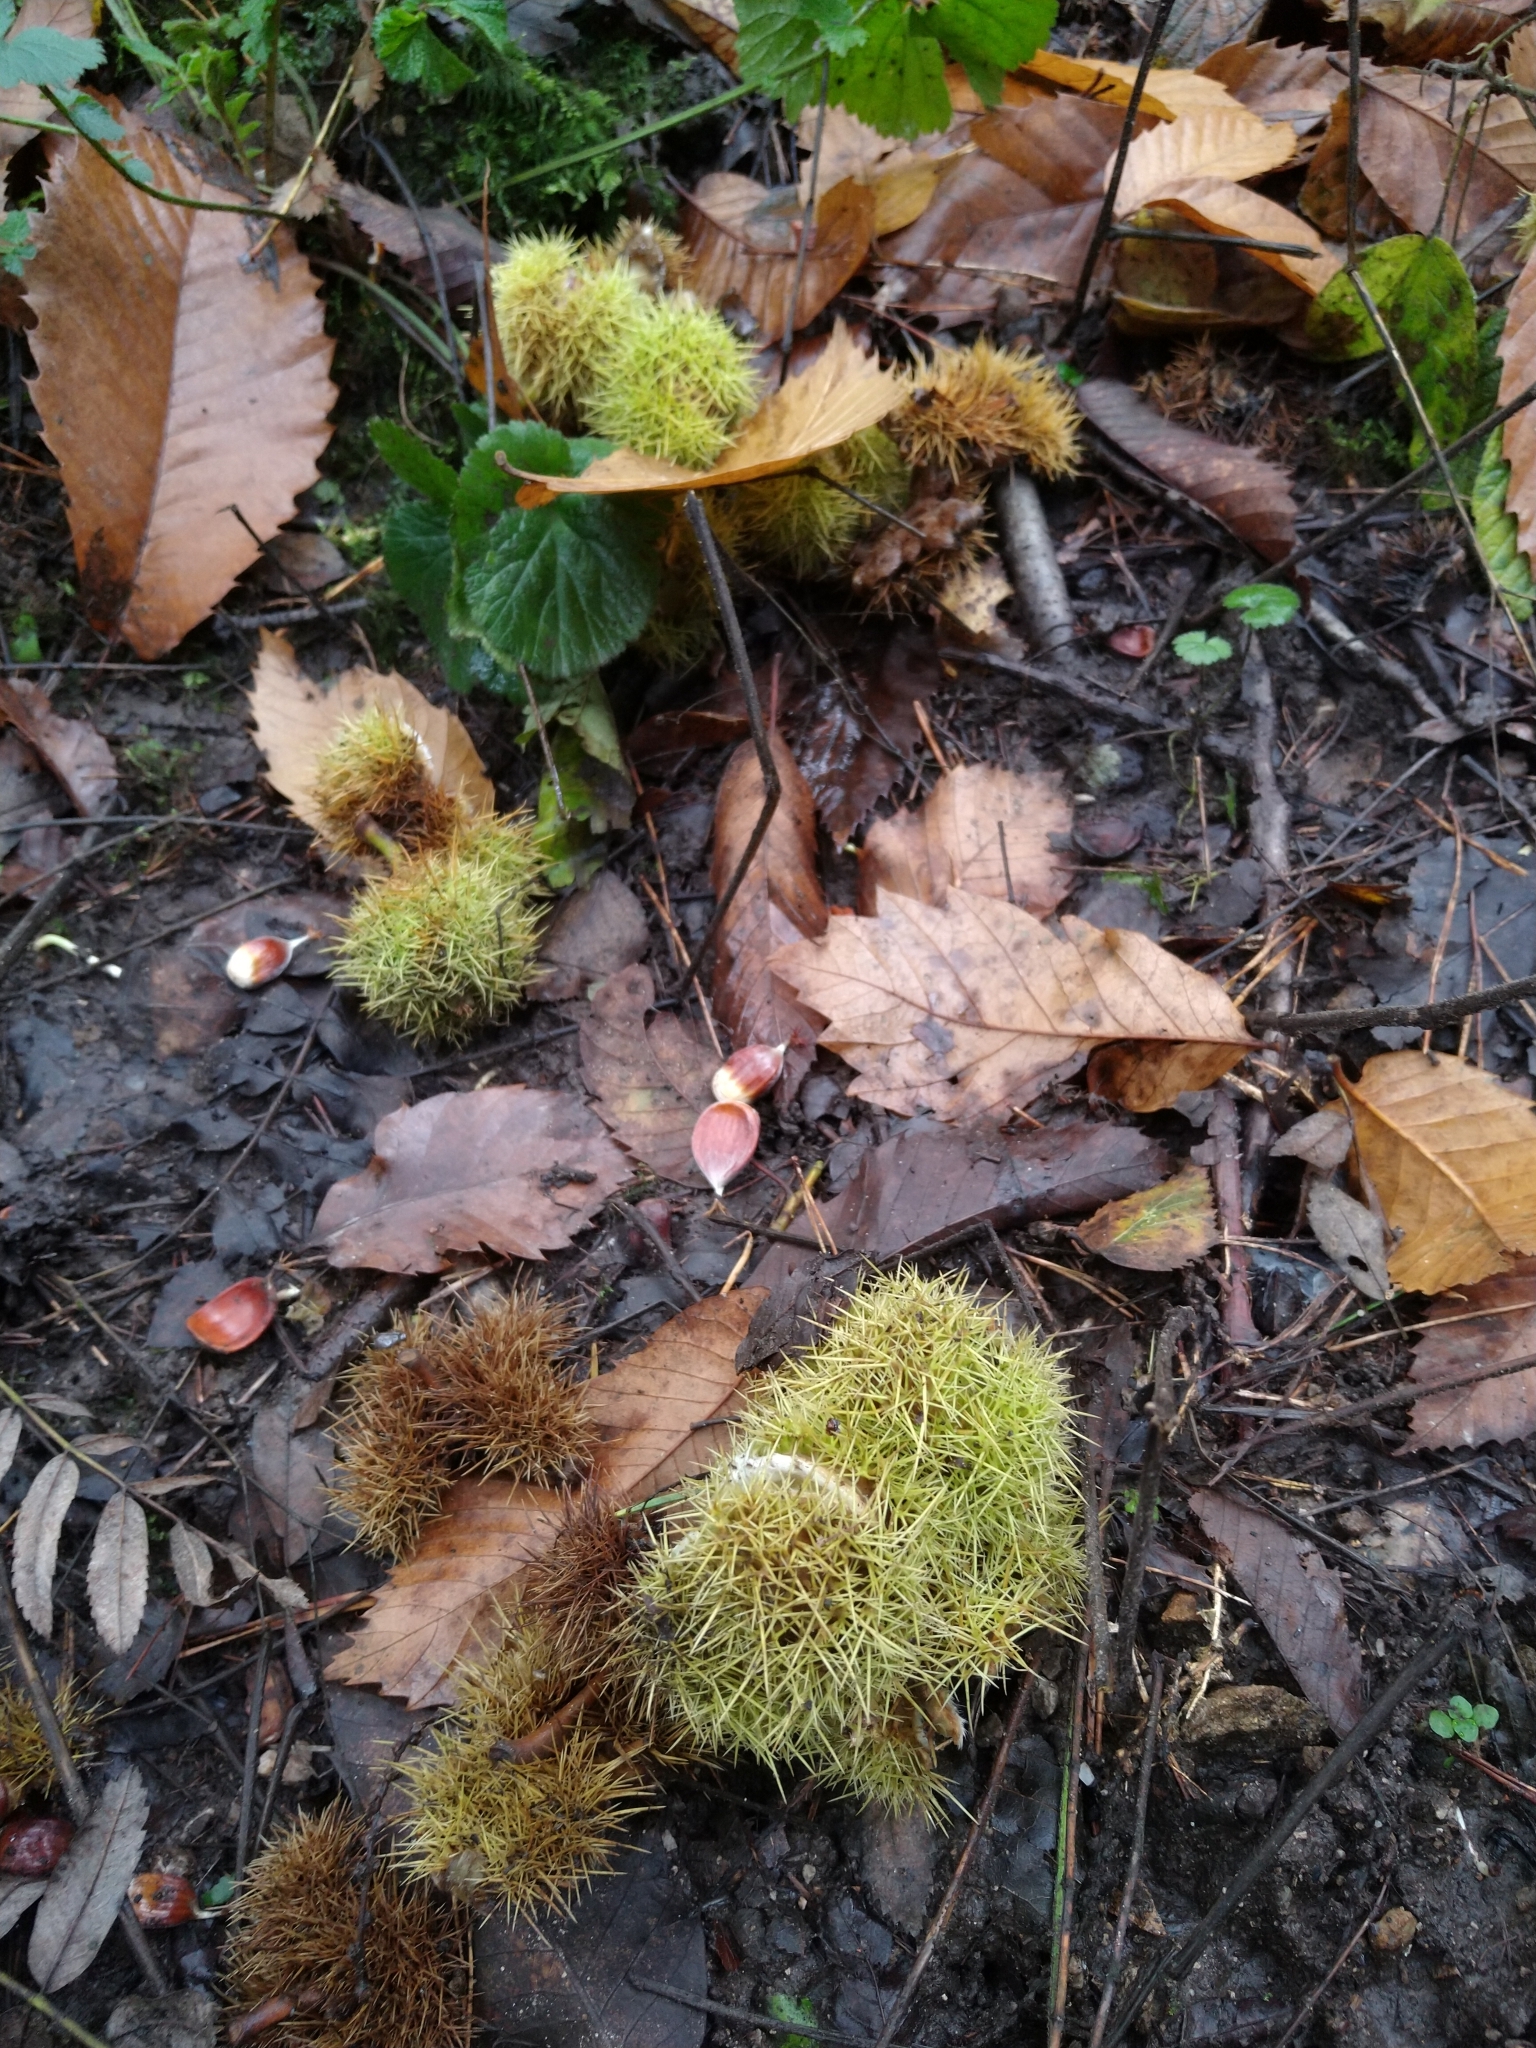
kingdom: Plantae
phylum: Tracheophyta
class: Magnoliopsida
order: Fagales
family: Fagaceae
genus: Castanea
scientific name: Castanea sativa
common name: Sweet chestnut
